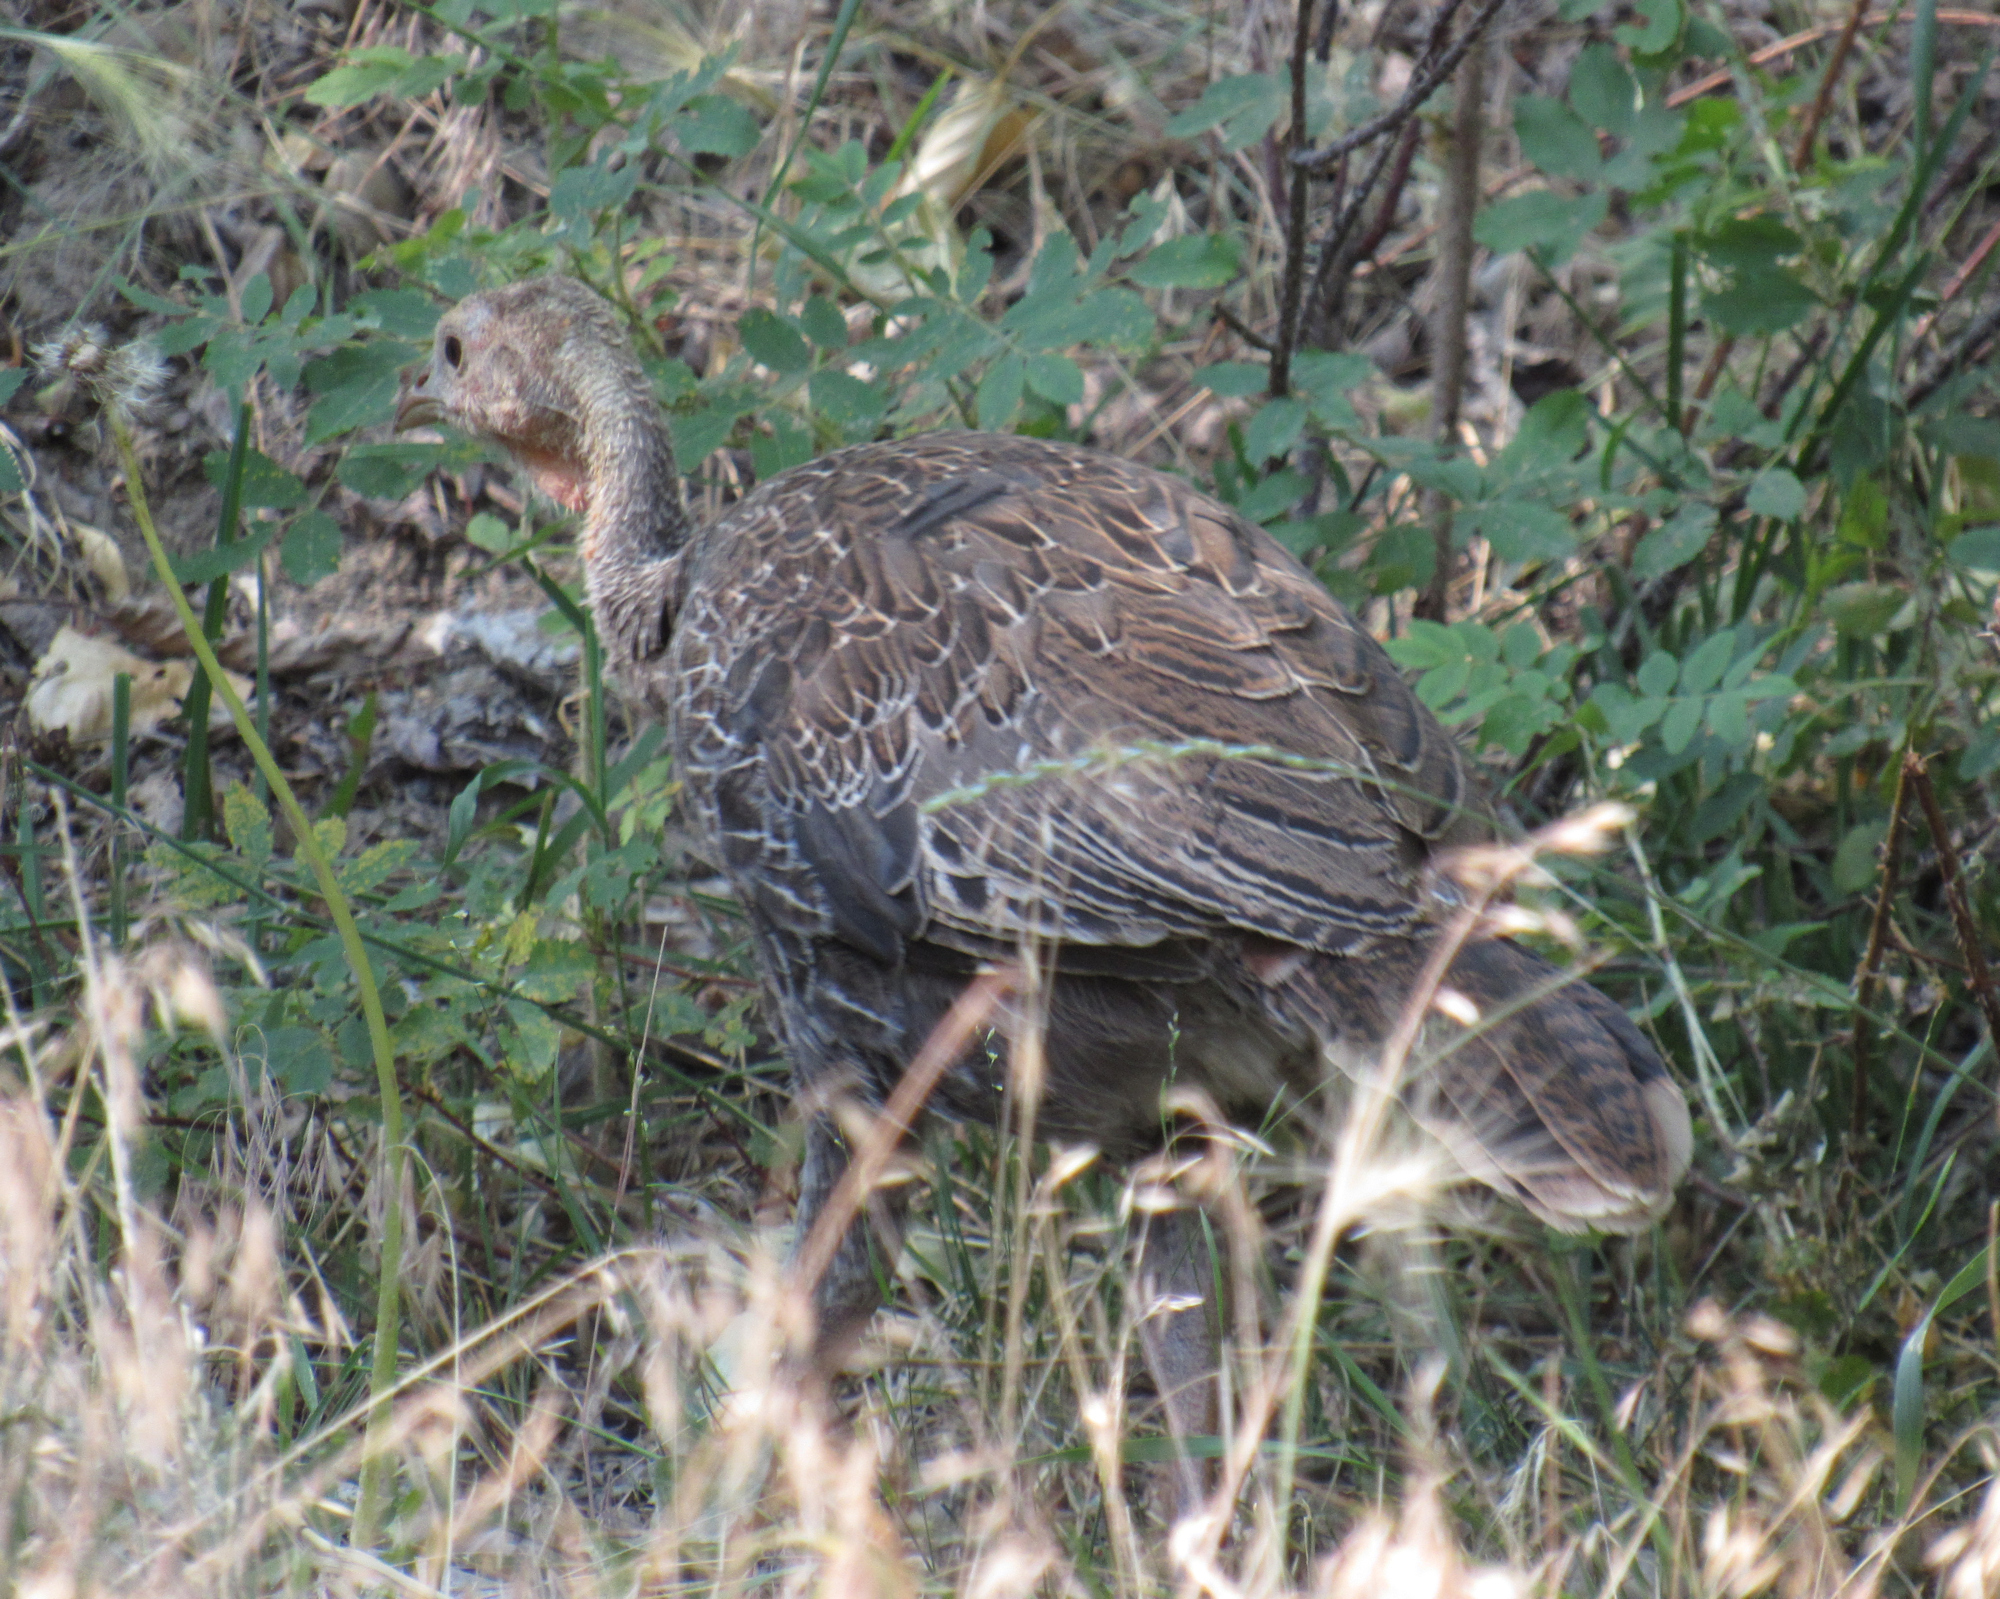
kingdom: Animalia
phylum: Chordata
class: Aves
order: Galliformes
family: Phasianidae
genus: Meleagris
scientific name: Meleagris gallopavo
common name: Wild turkey
